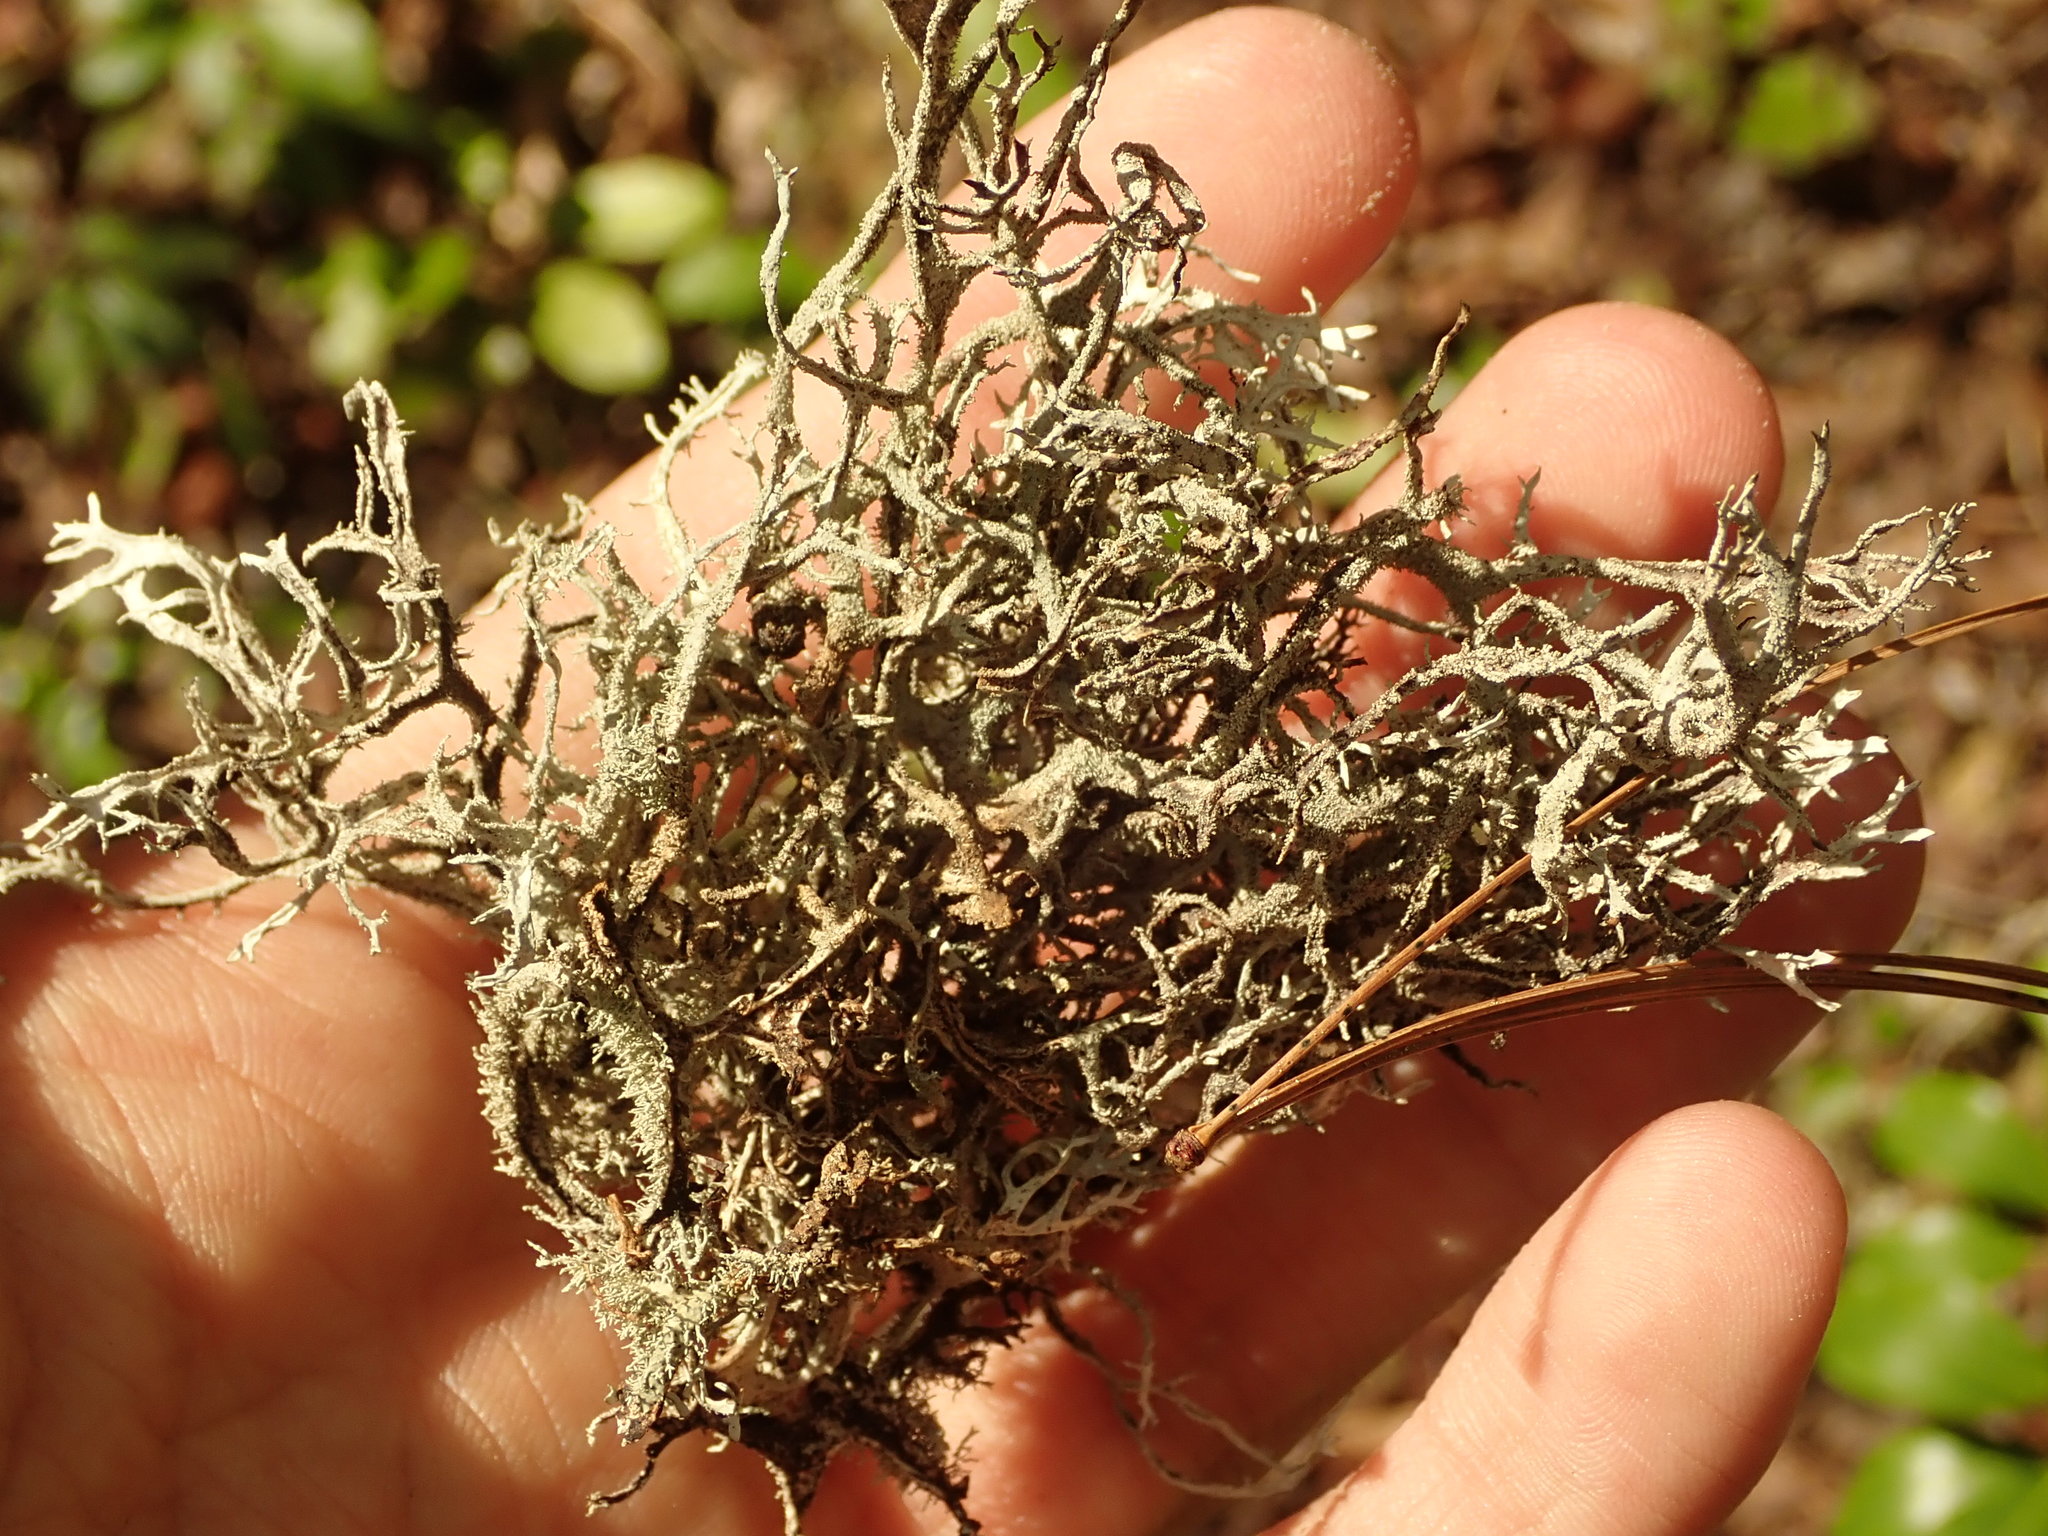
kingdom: Fungi
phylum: Ascomycota
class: Lecanoromycetes
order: Lecanorales
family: Parmeliaceae
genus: Pseudevernia
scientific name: Pseudevernia consocians
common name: Common antler lichen
